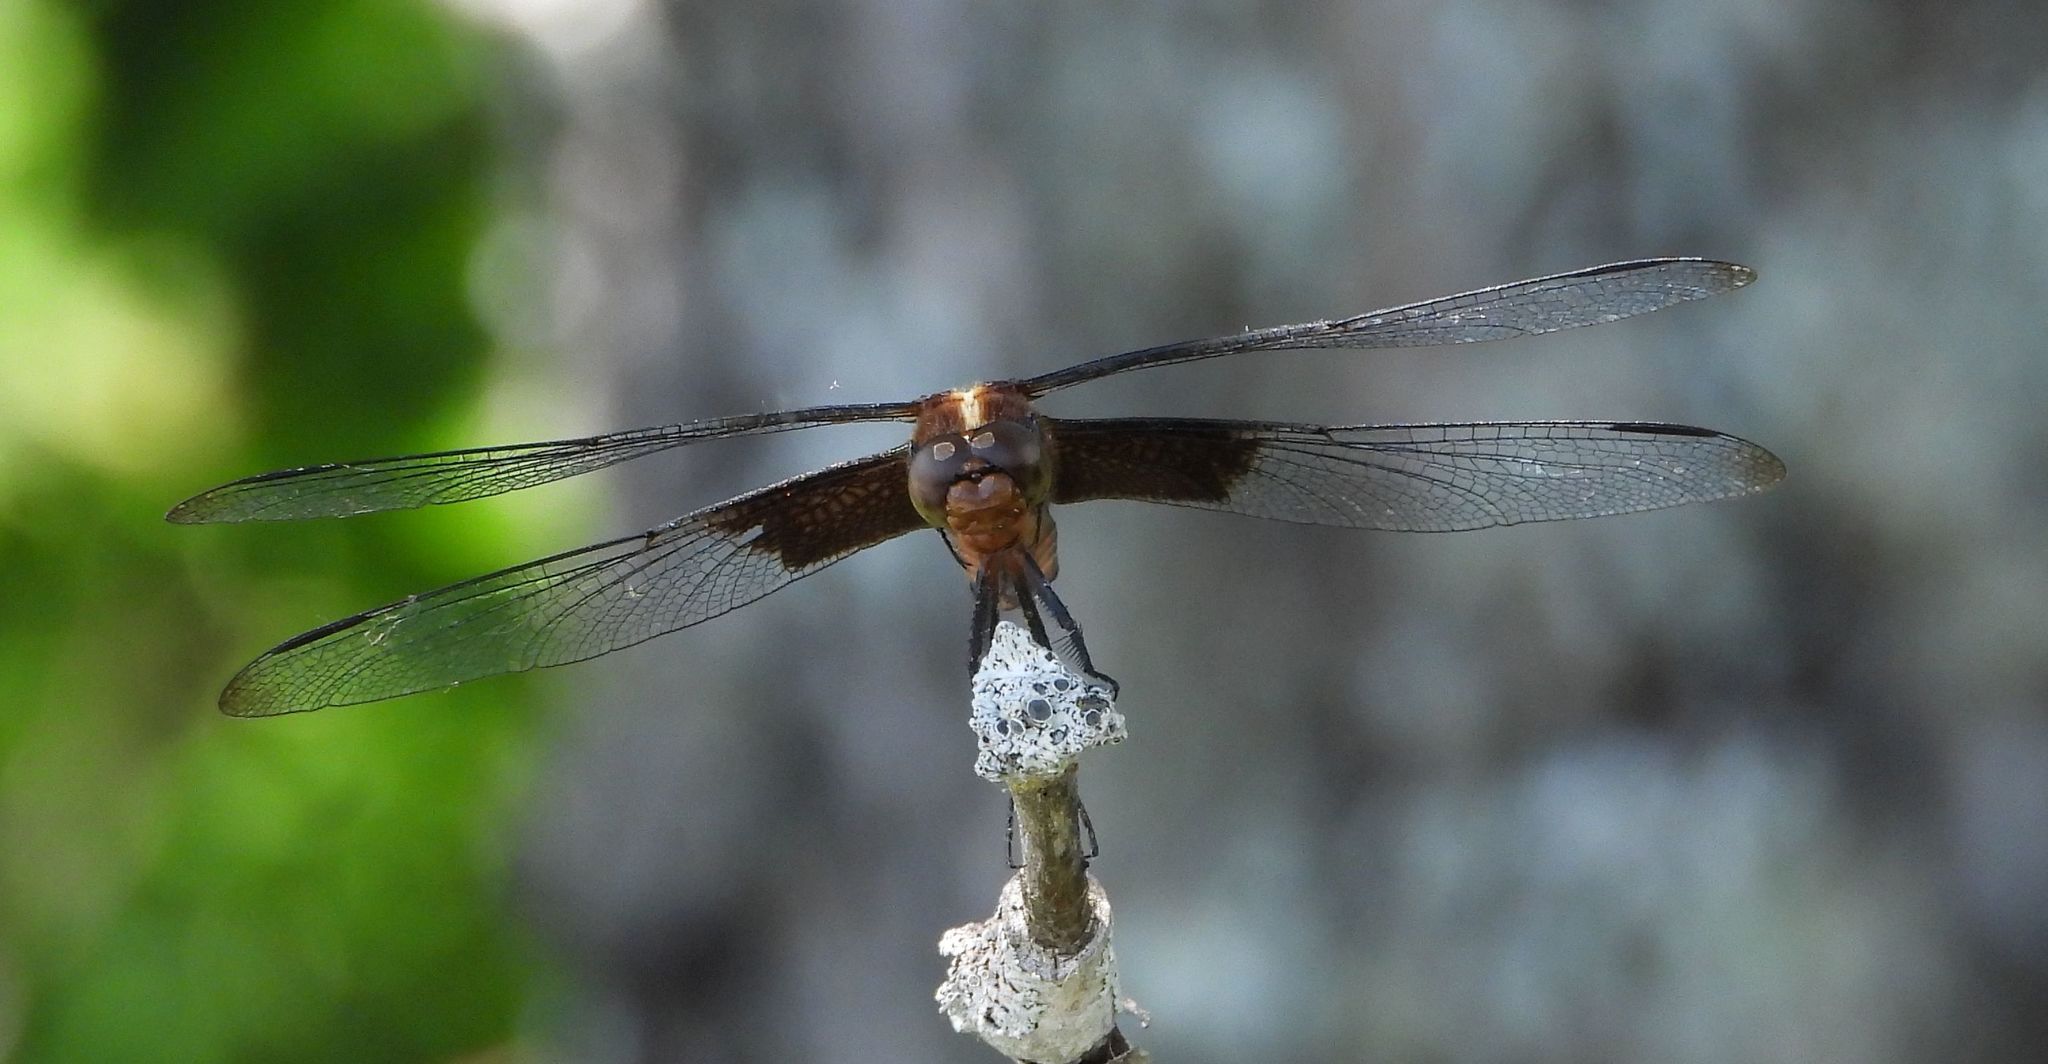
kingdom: Animalia
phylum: Arthropoda
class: Insecta
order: Odonata
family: Libellulidae
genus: Libellula
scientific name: Libellula luctuosa
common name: Widow skimmer
